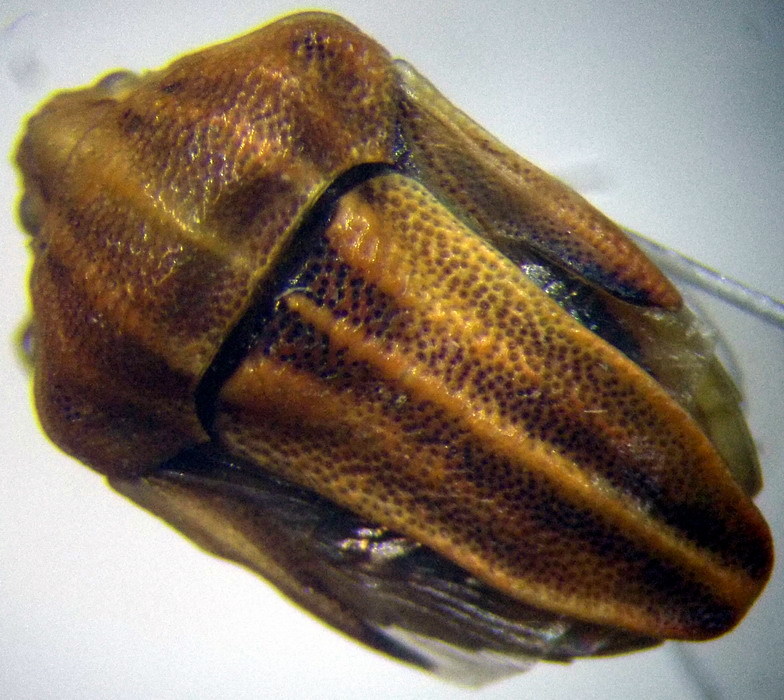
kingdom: Animalia
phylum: Arthropoda
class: Insecta
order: Hemiptera
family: Pentatomidae
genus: Tholagmus
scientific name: Tholagmus flavolineatus
